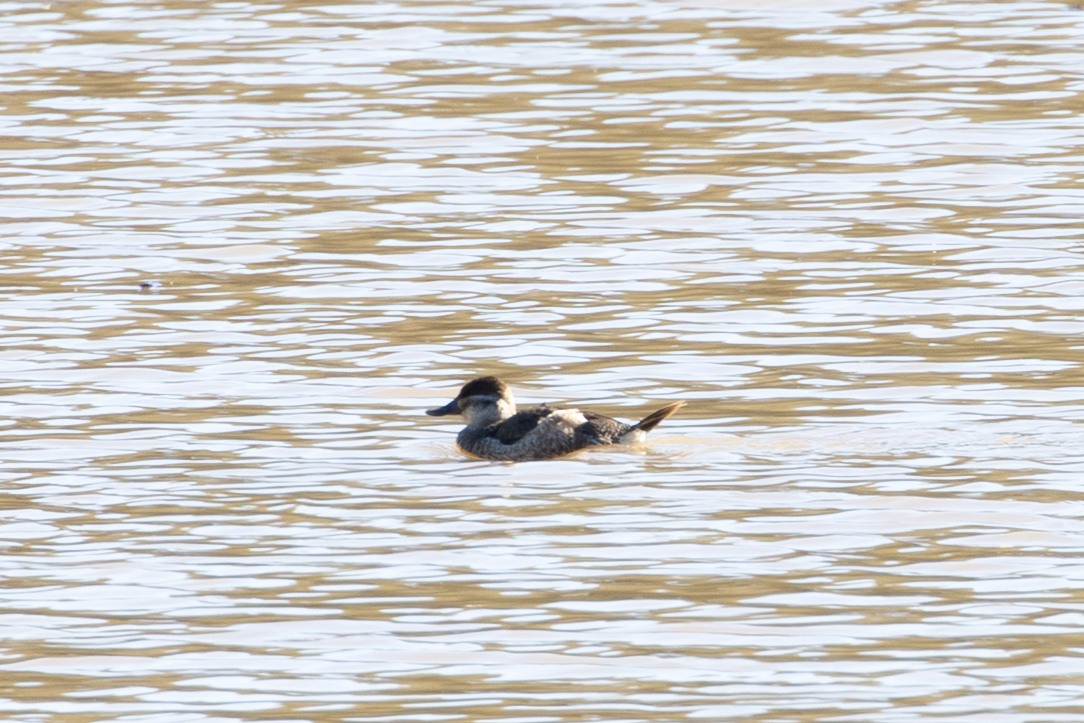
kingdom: Animalia
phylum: Chordata
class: Aves
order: Anseriformes
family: Anatidae
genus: Oxyura
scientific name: Oxyura jamaicensis
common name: Ruddy duck
